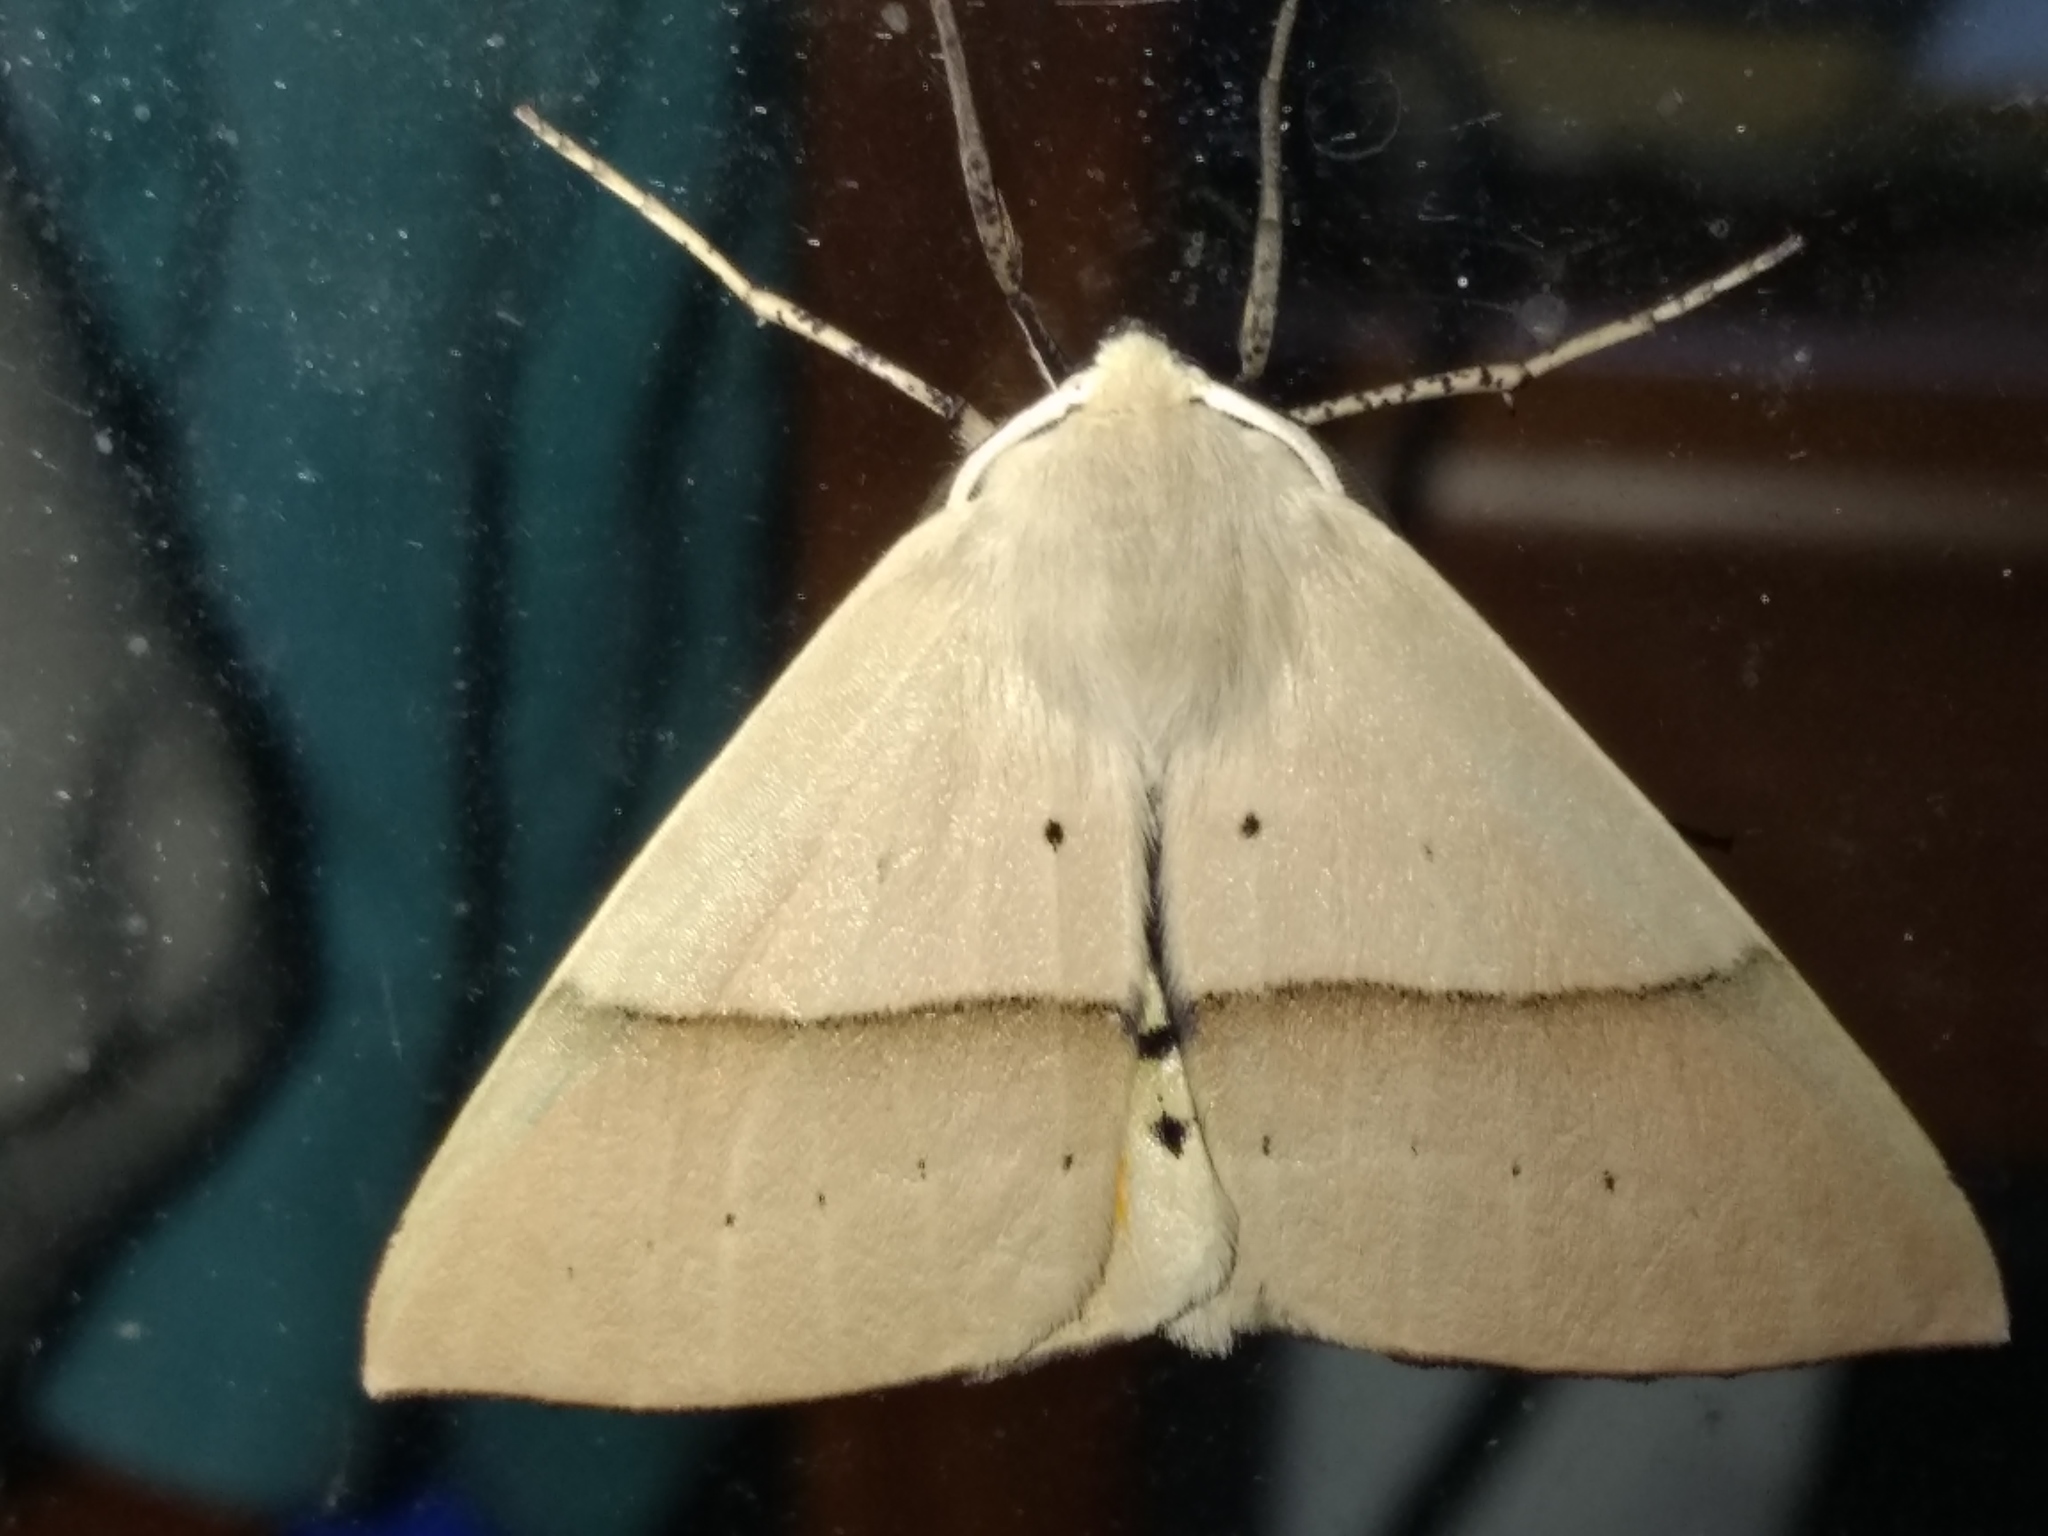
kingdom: Animalia
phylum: Arthropoda
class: Insecta
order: Lepidoptera
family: Geometridae
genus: Gastrophora
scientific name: Gastrophora henricaria
